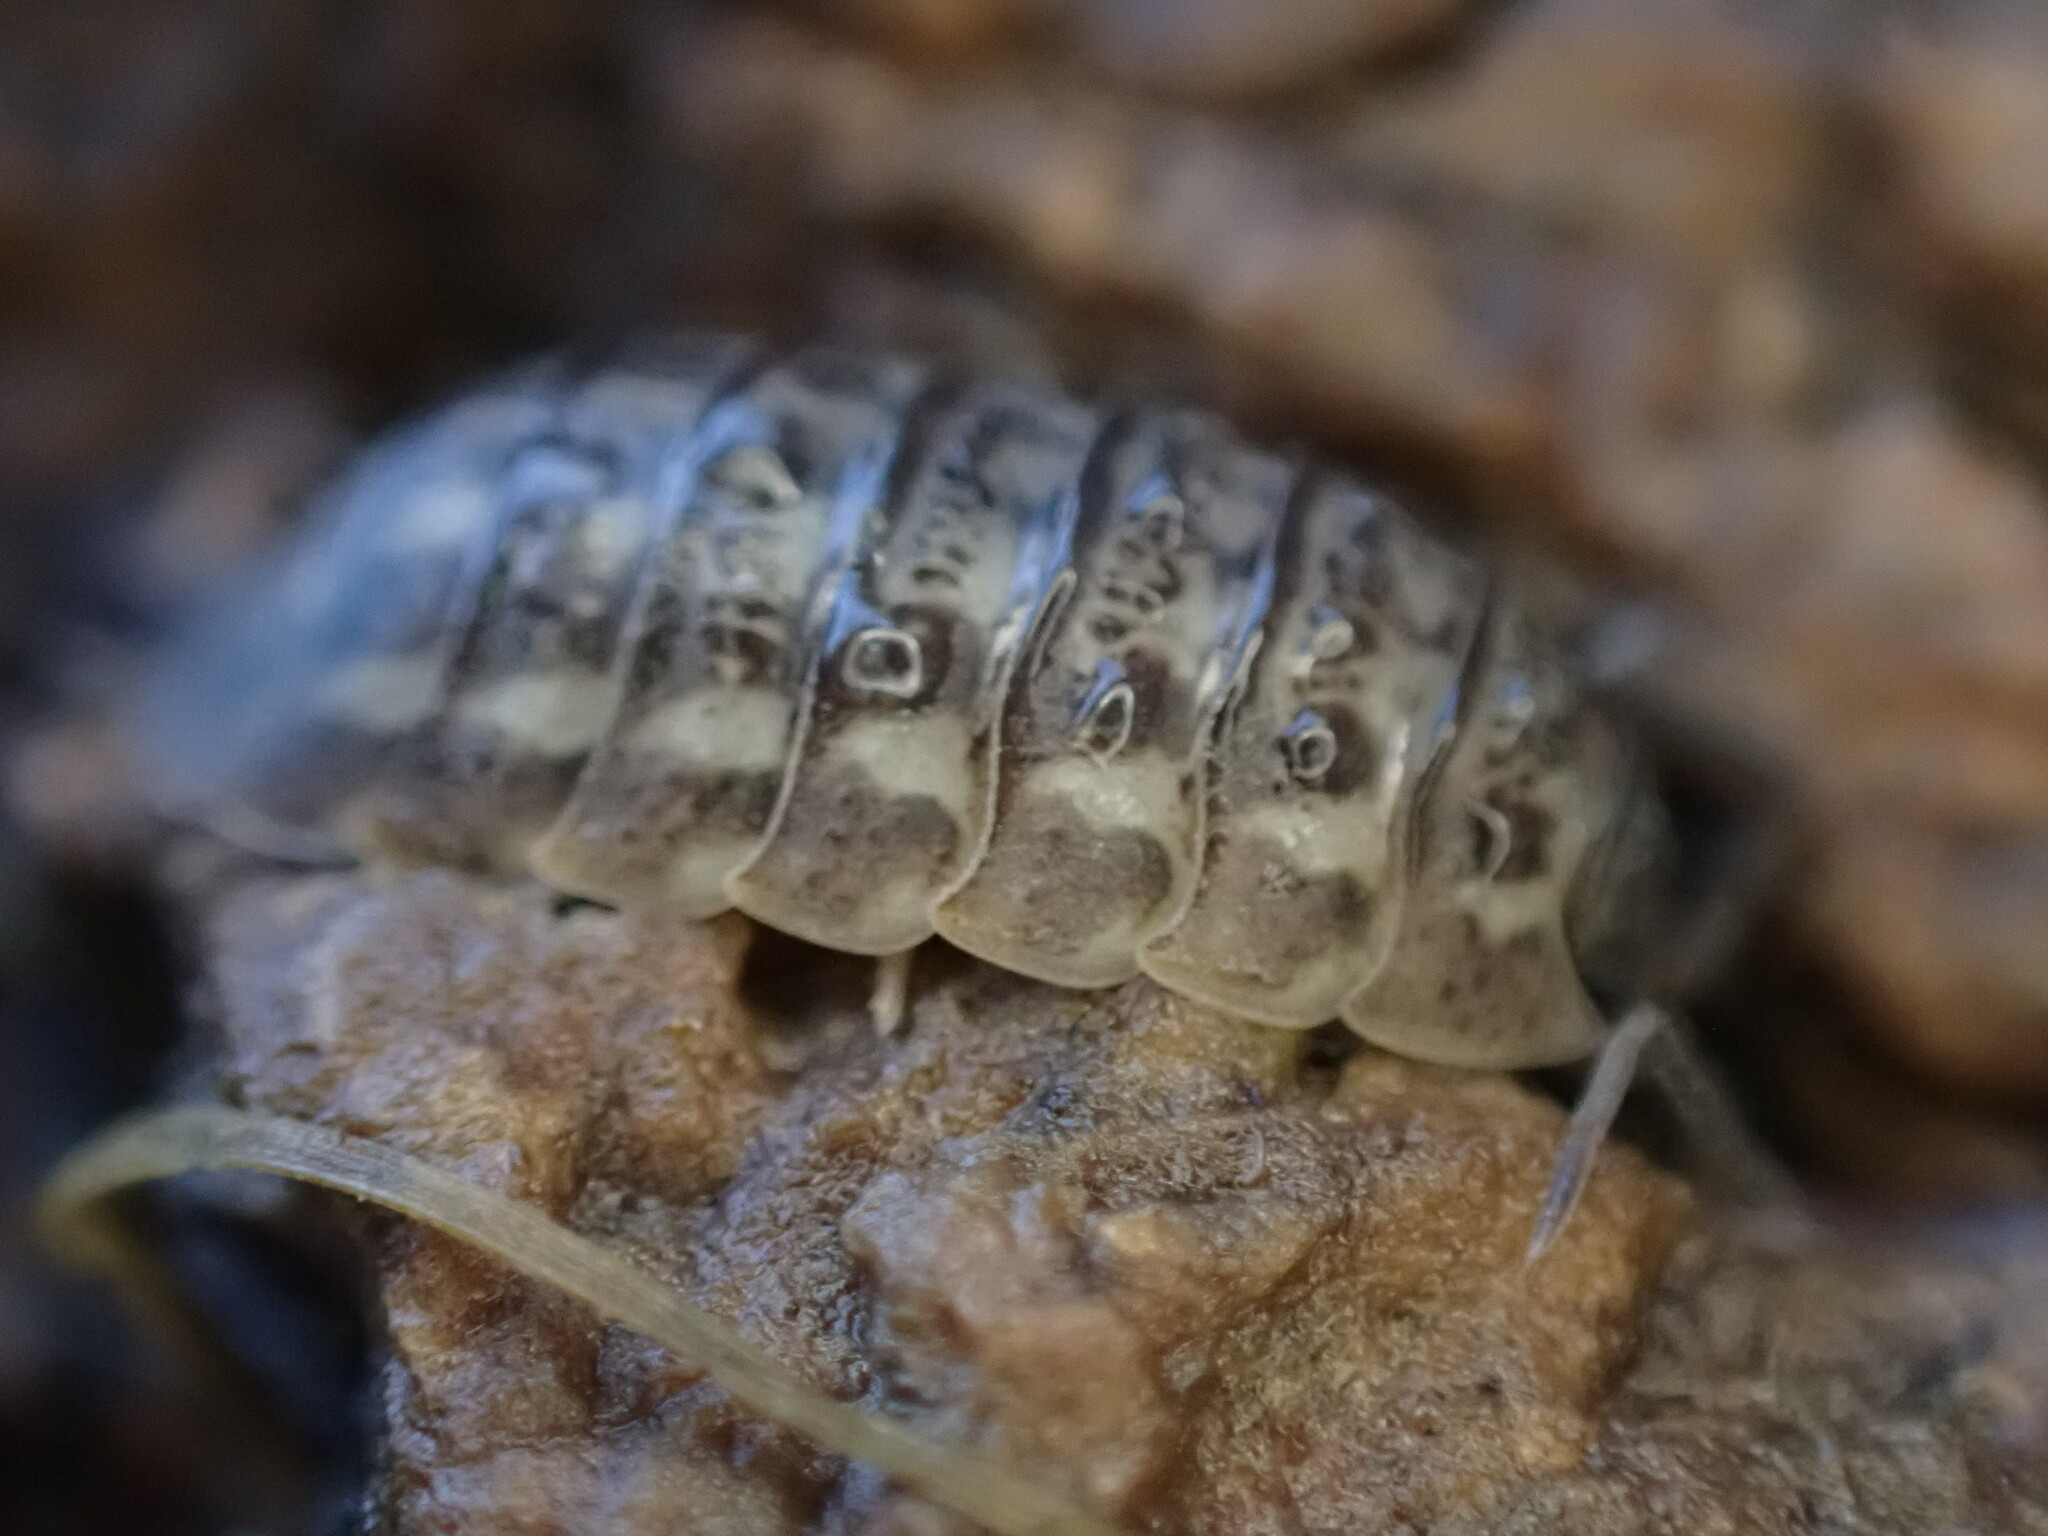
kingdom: Animalia
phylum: Arthropoda
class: Malacostraca
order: Isopoda
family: Trachelipodidae
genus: Trachelipus
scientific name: Trachelipus rathkii
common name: Isopod
